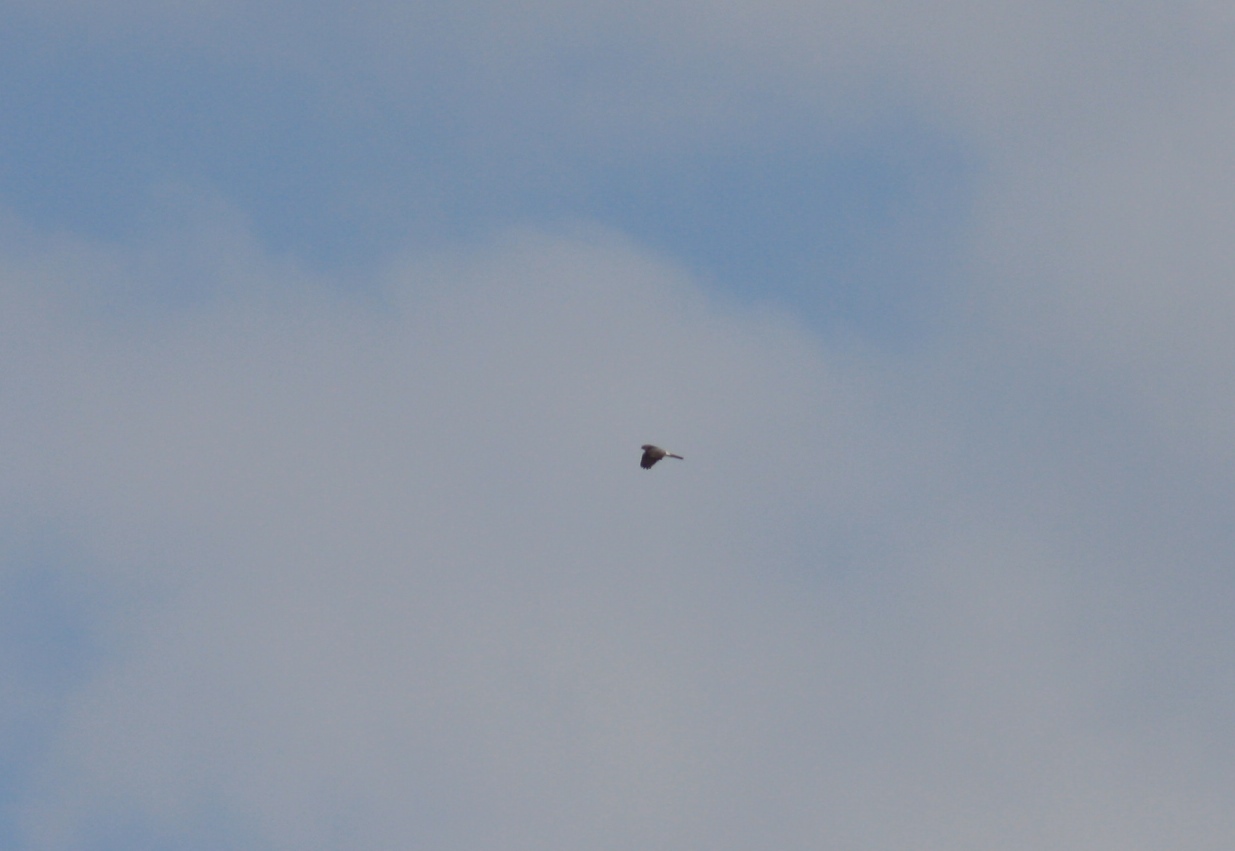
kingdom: Animalia
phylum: Chordata
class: Aves
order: Accipitriformes
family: Accipitridae
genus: Circus
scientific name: Circus cyaneus
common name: Hen harrier
